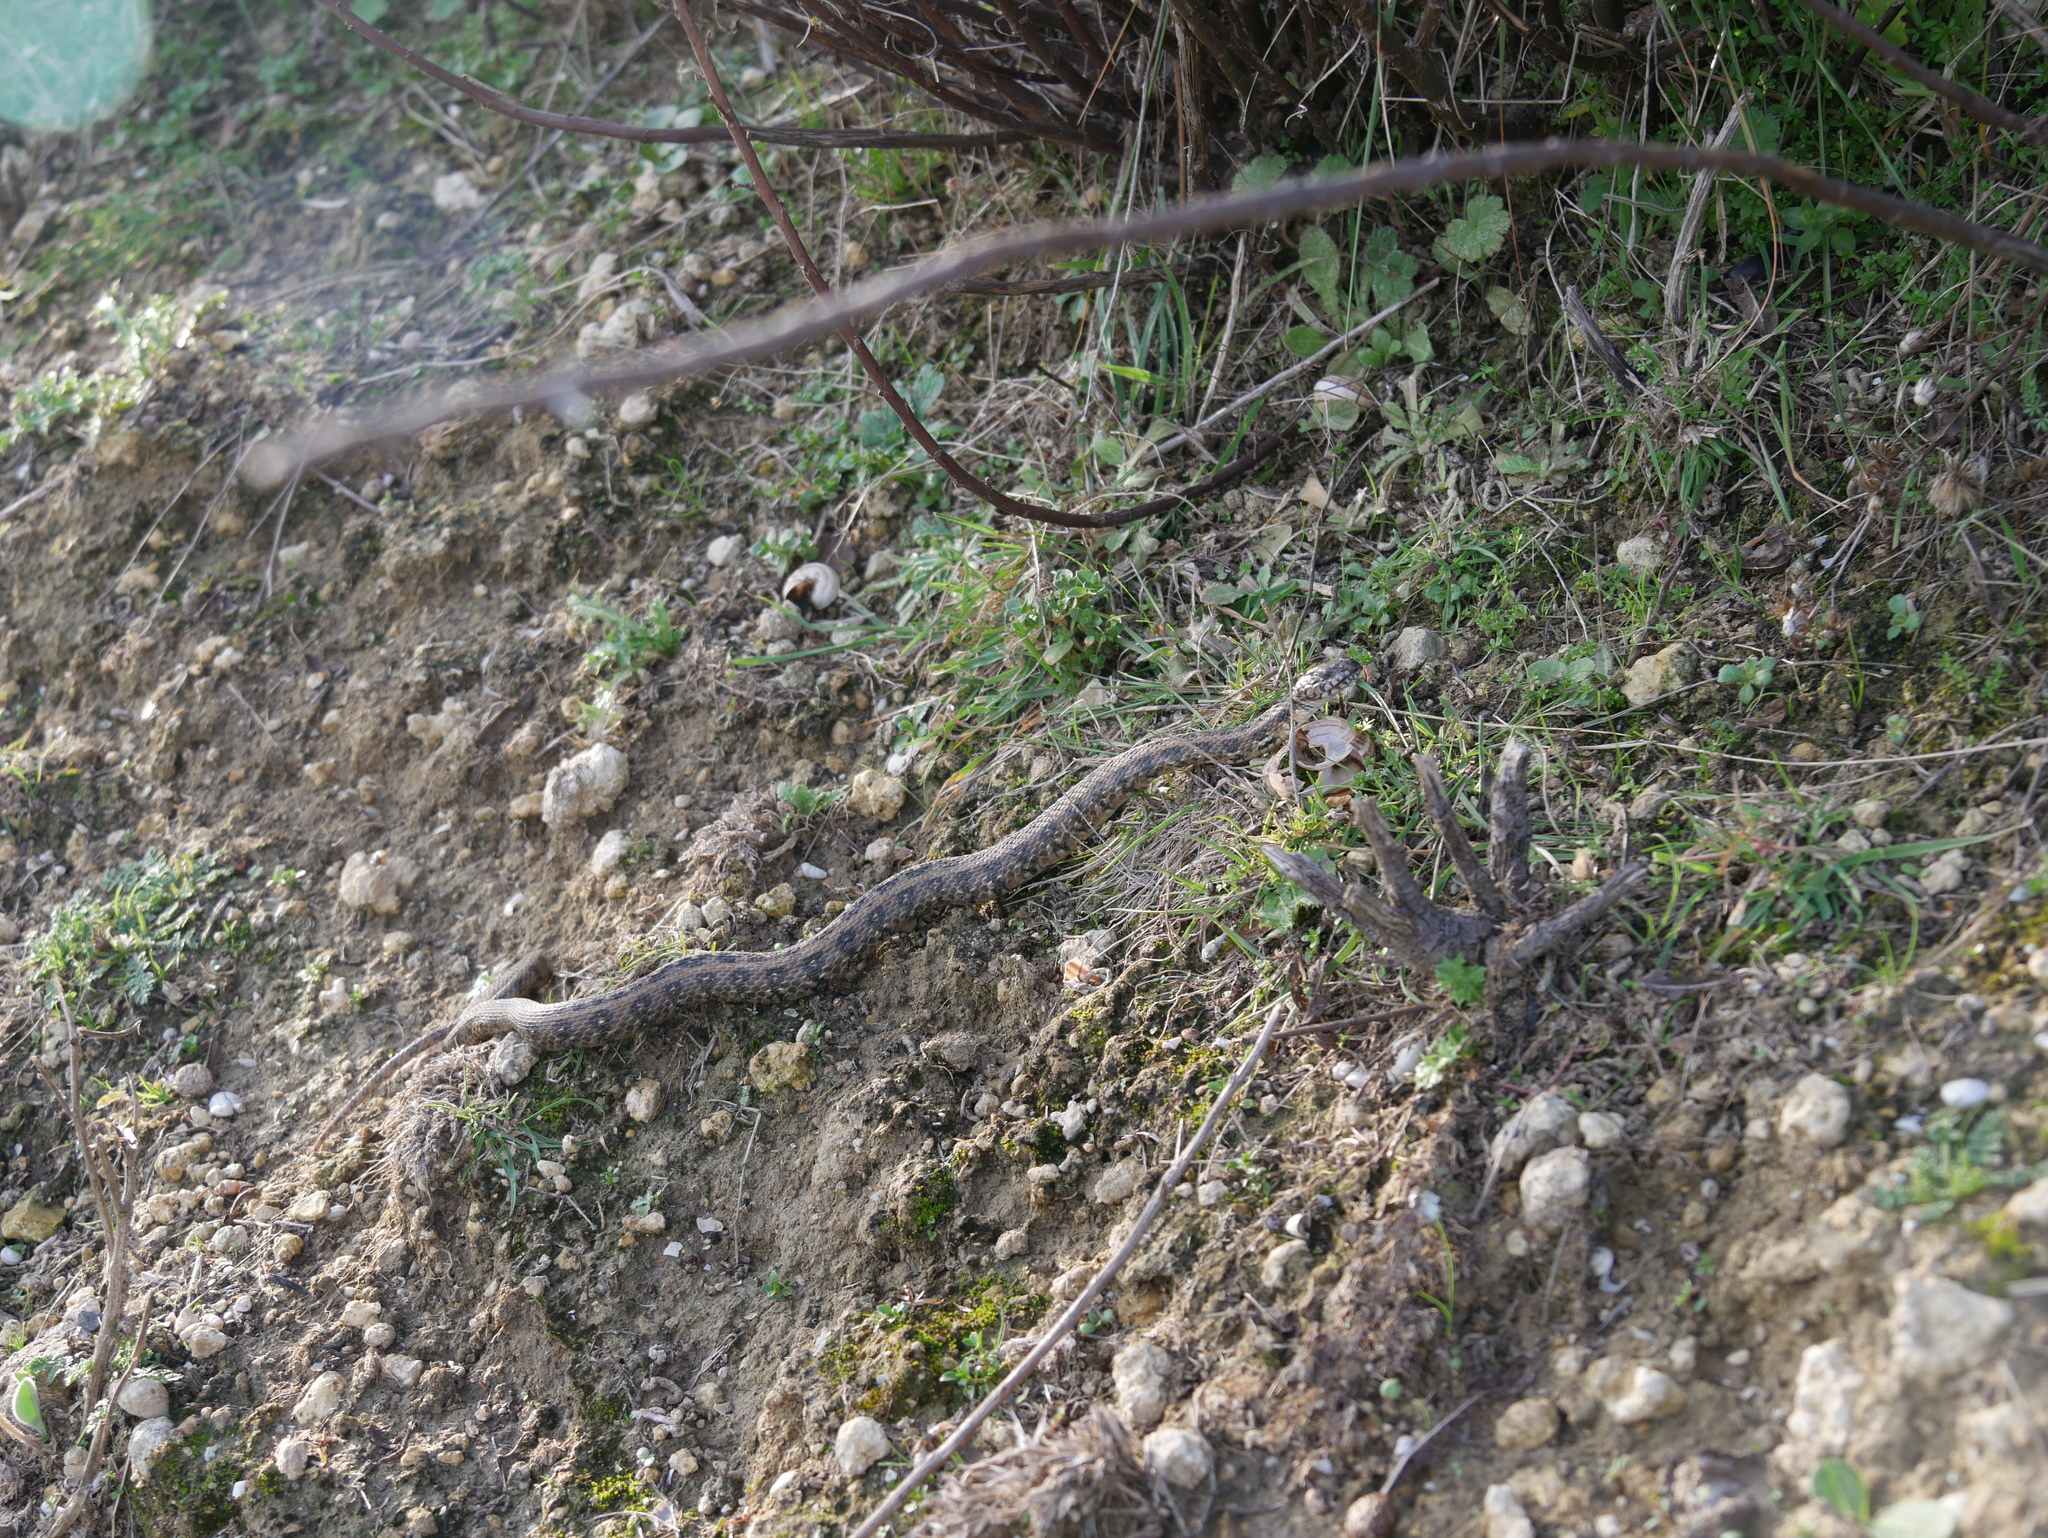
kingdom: Animalia
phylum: Chordata
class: Squamata
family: Colubridae
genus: Natrix
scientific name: Natrix maura
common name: Viperine water snake
